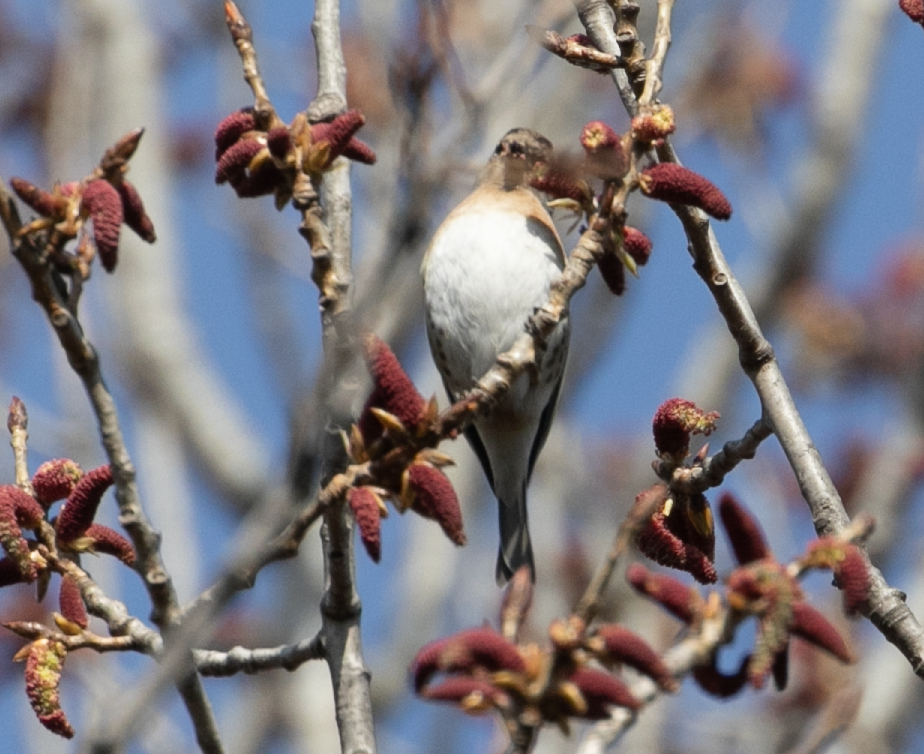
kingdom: Animalia
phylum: Chordata
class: Aves
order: Passeriformes
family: Fringillidae
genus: Fringilla
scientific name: Fringilla montifringilla
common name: Brambling
